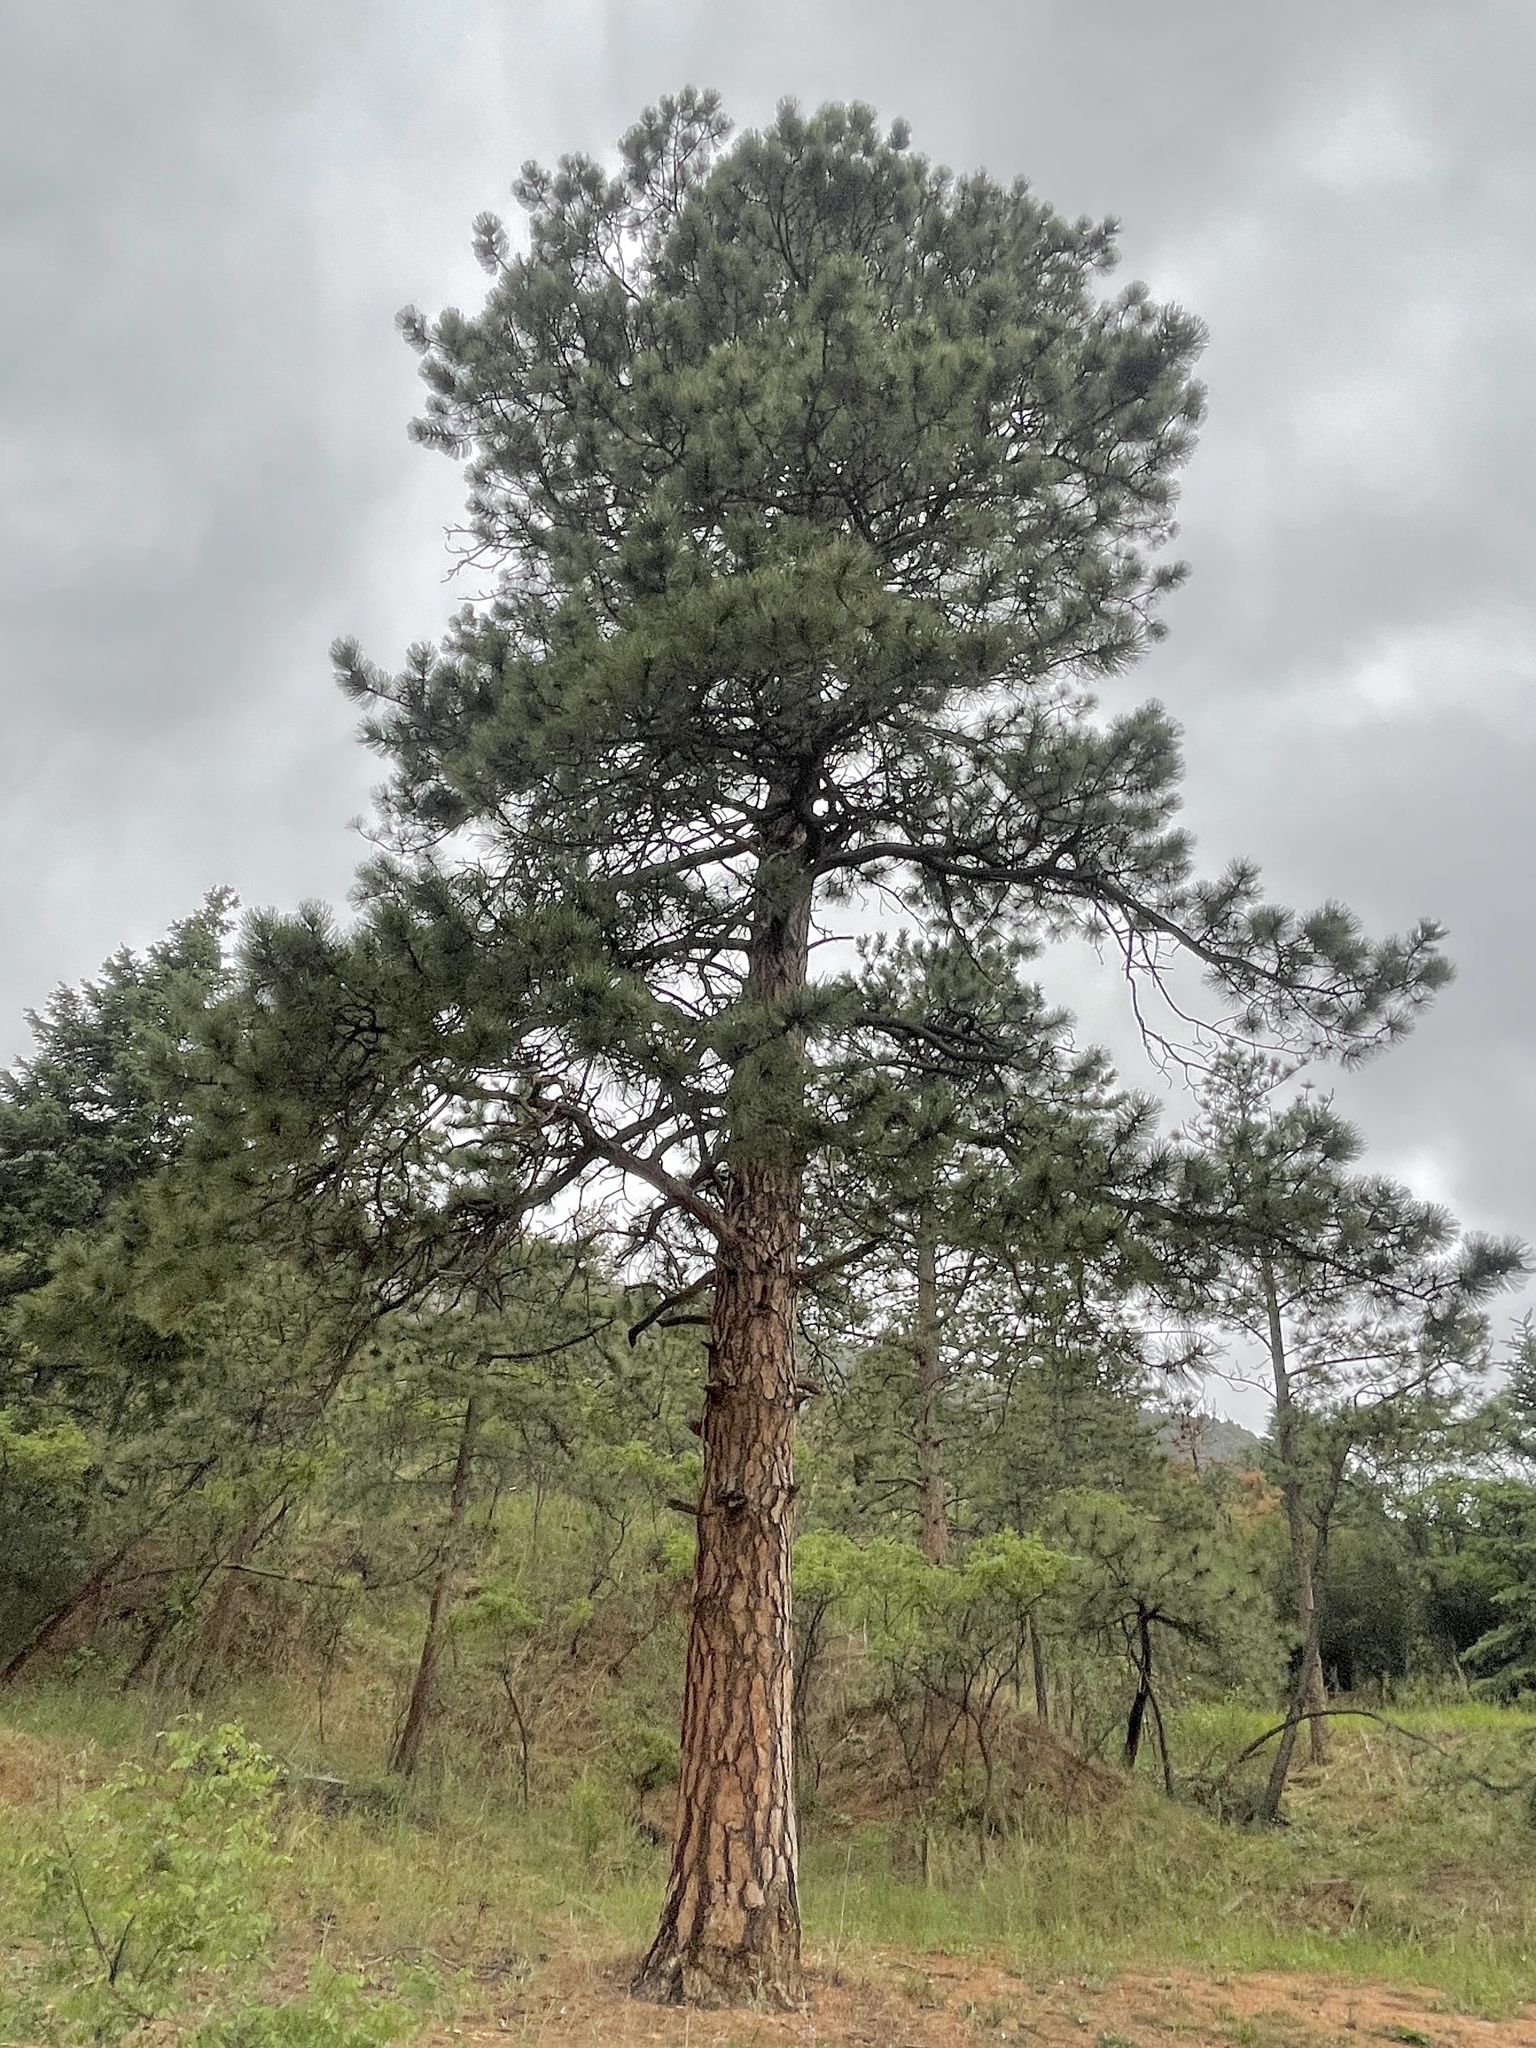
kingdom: Plantae
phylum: Tracheophyta
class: Pinopsida
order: Pinales
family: Pinaceae
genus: Pinus
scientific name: Pinus ponderosa
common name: Western yellow-pine
